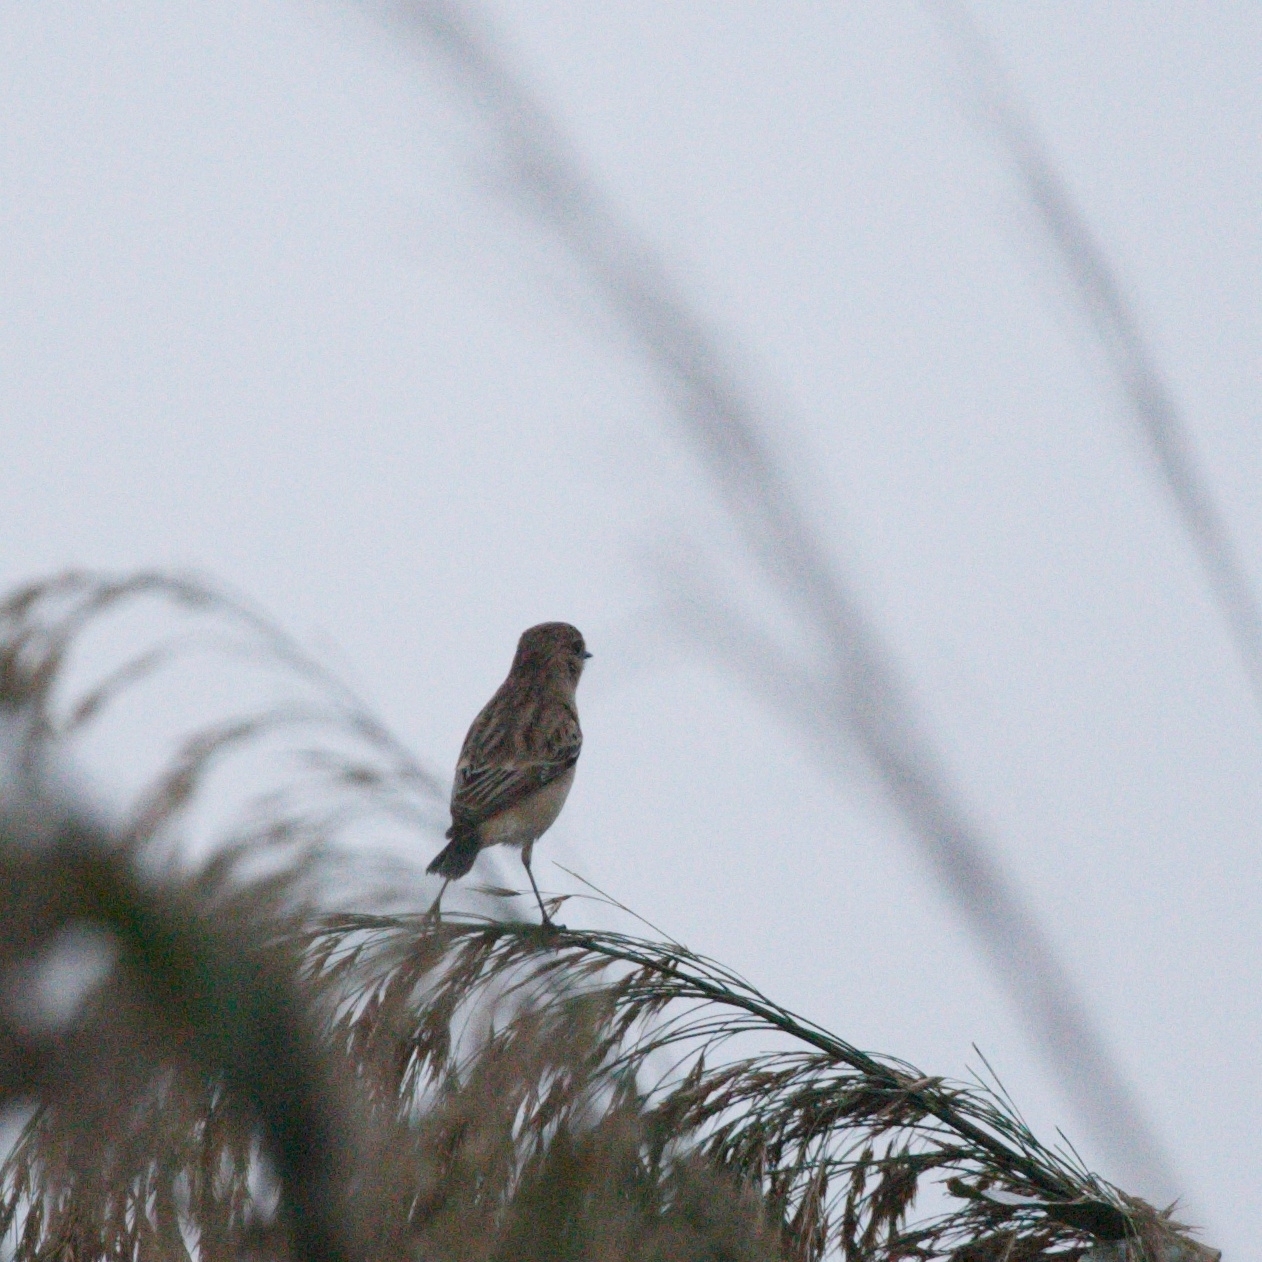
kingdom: Animalia
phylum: Chordata
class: Aves
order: Passeriformes
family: Muscicapidae
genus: Saxicola
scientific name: Saxicola maurus
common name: Siberian stonechat
